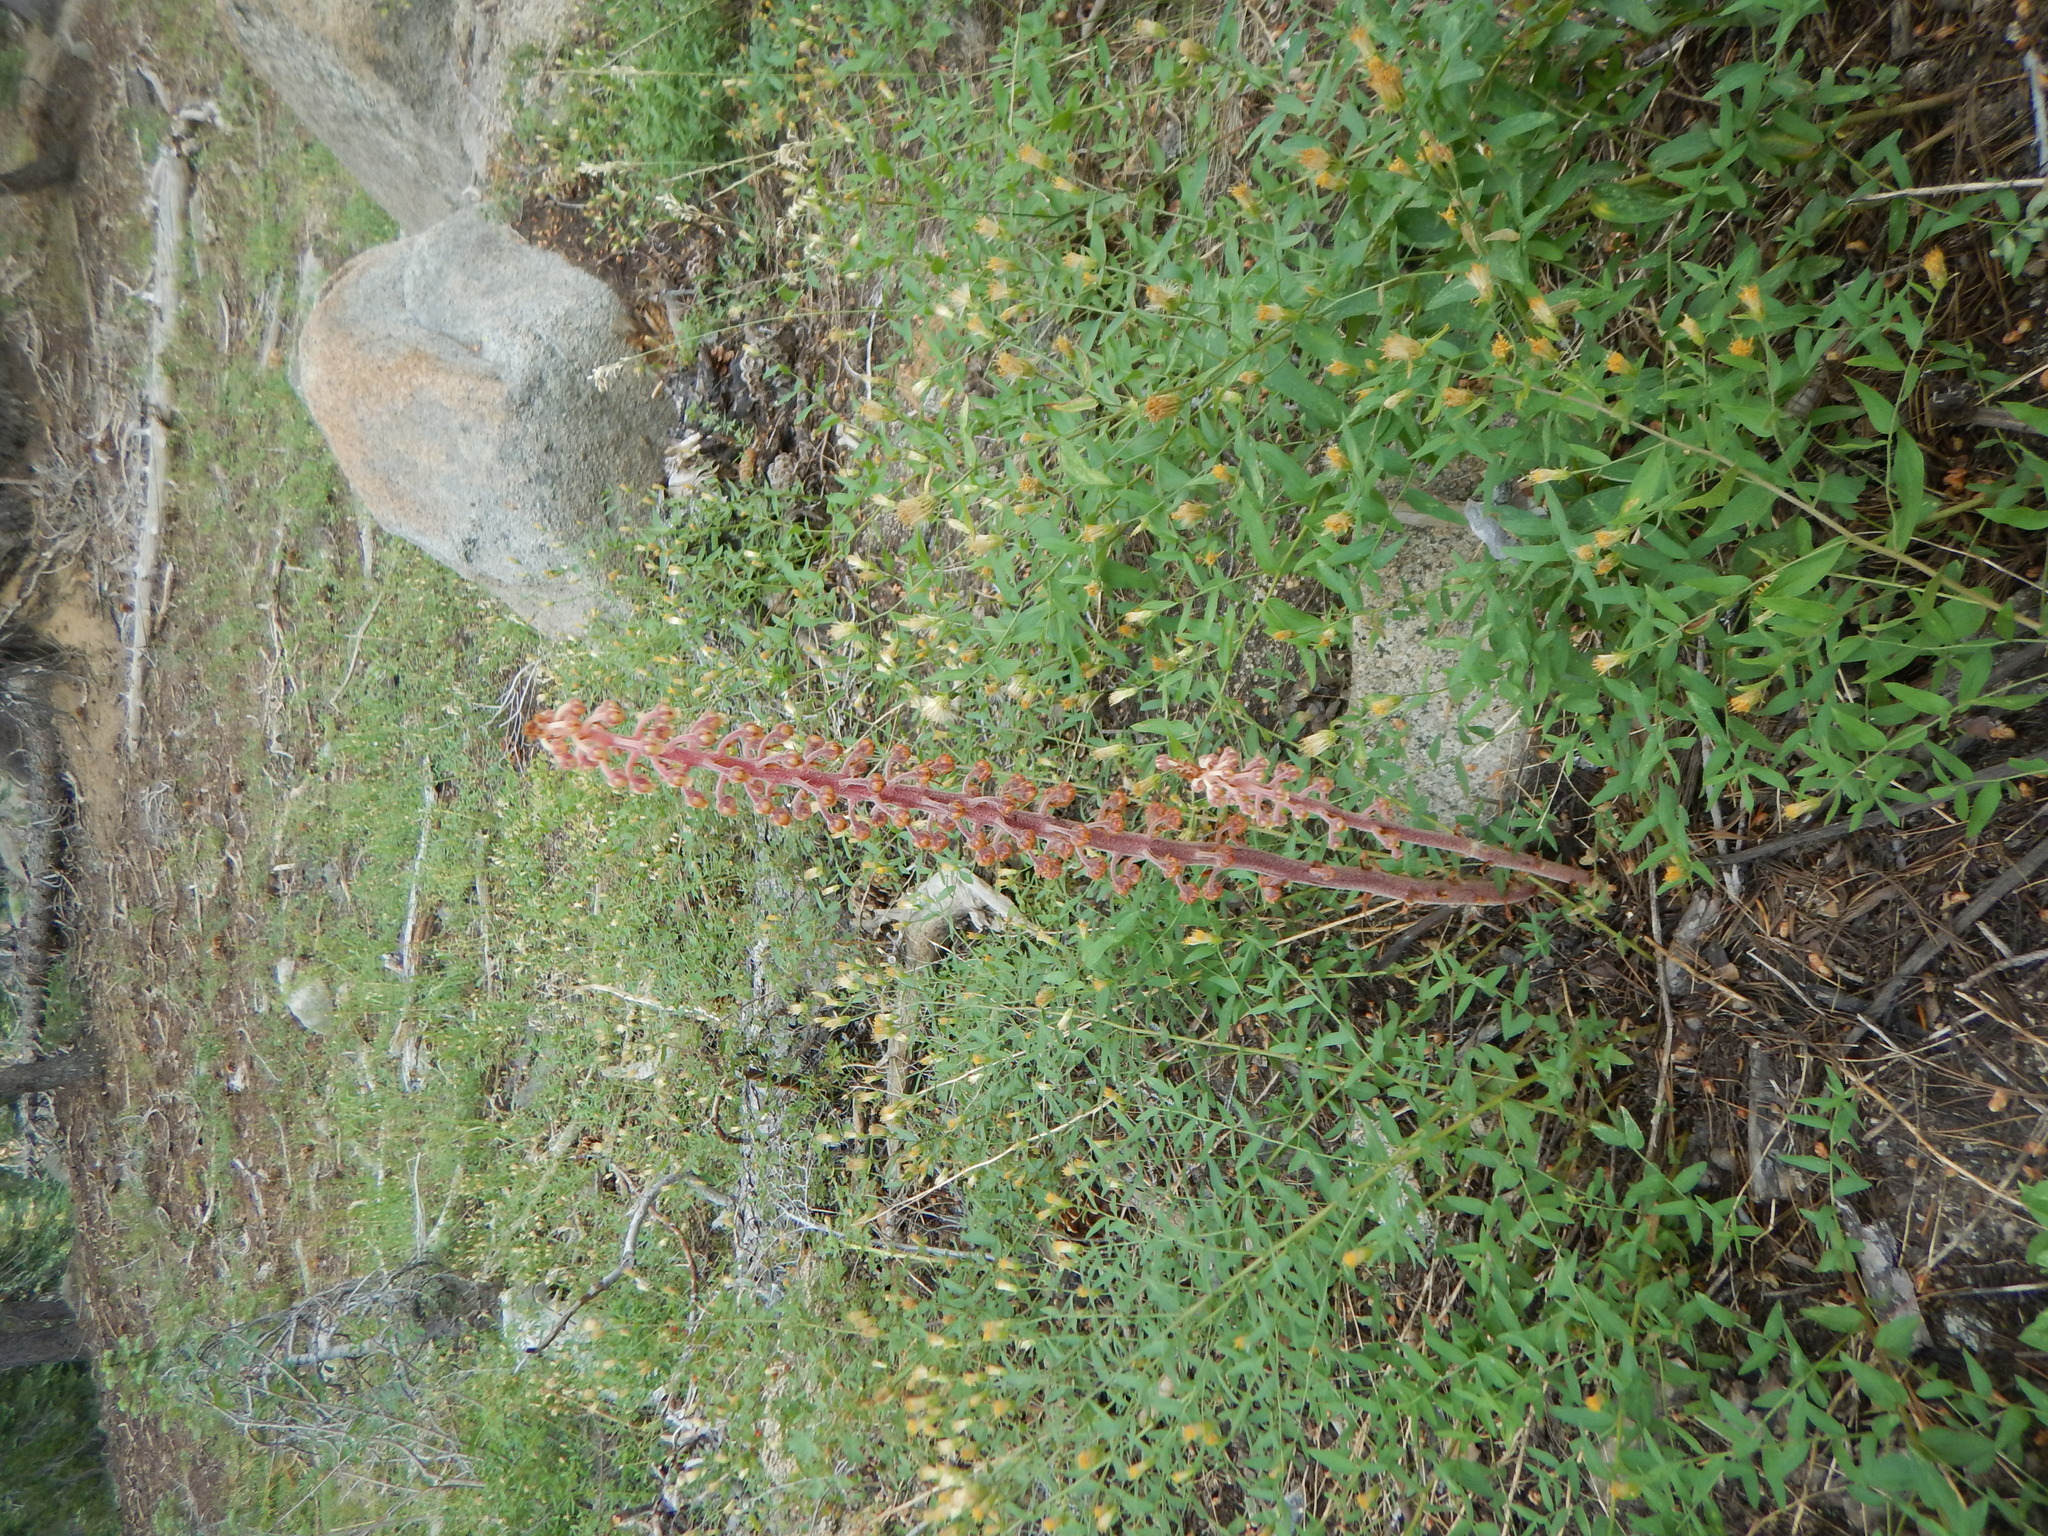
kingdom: Plantae
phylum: Tracheophyta
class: Magnoliopsida
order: Ericales
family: Ericaceae
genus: Pterospora
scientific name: Pterospora andromedea
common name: Giant bird's-nest
